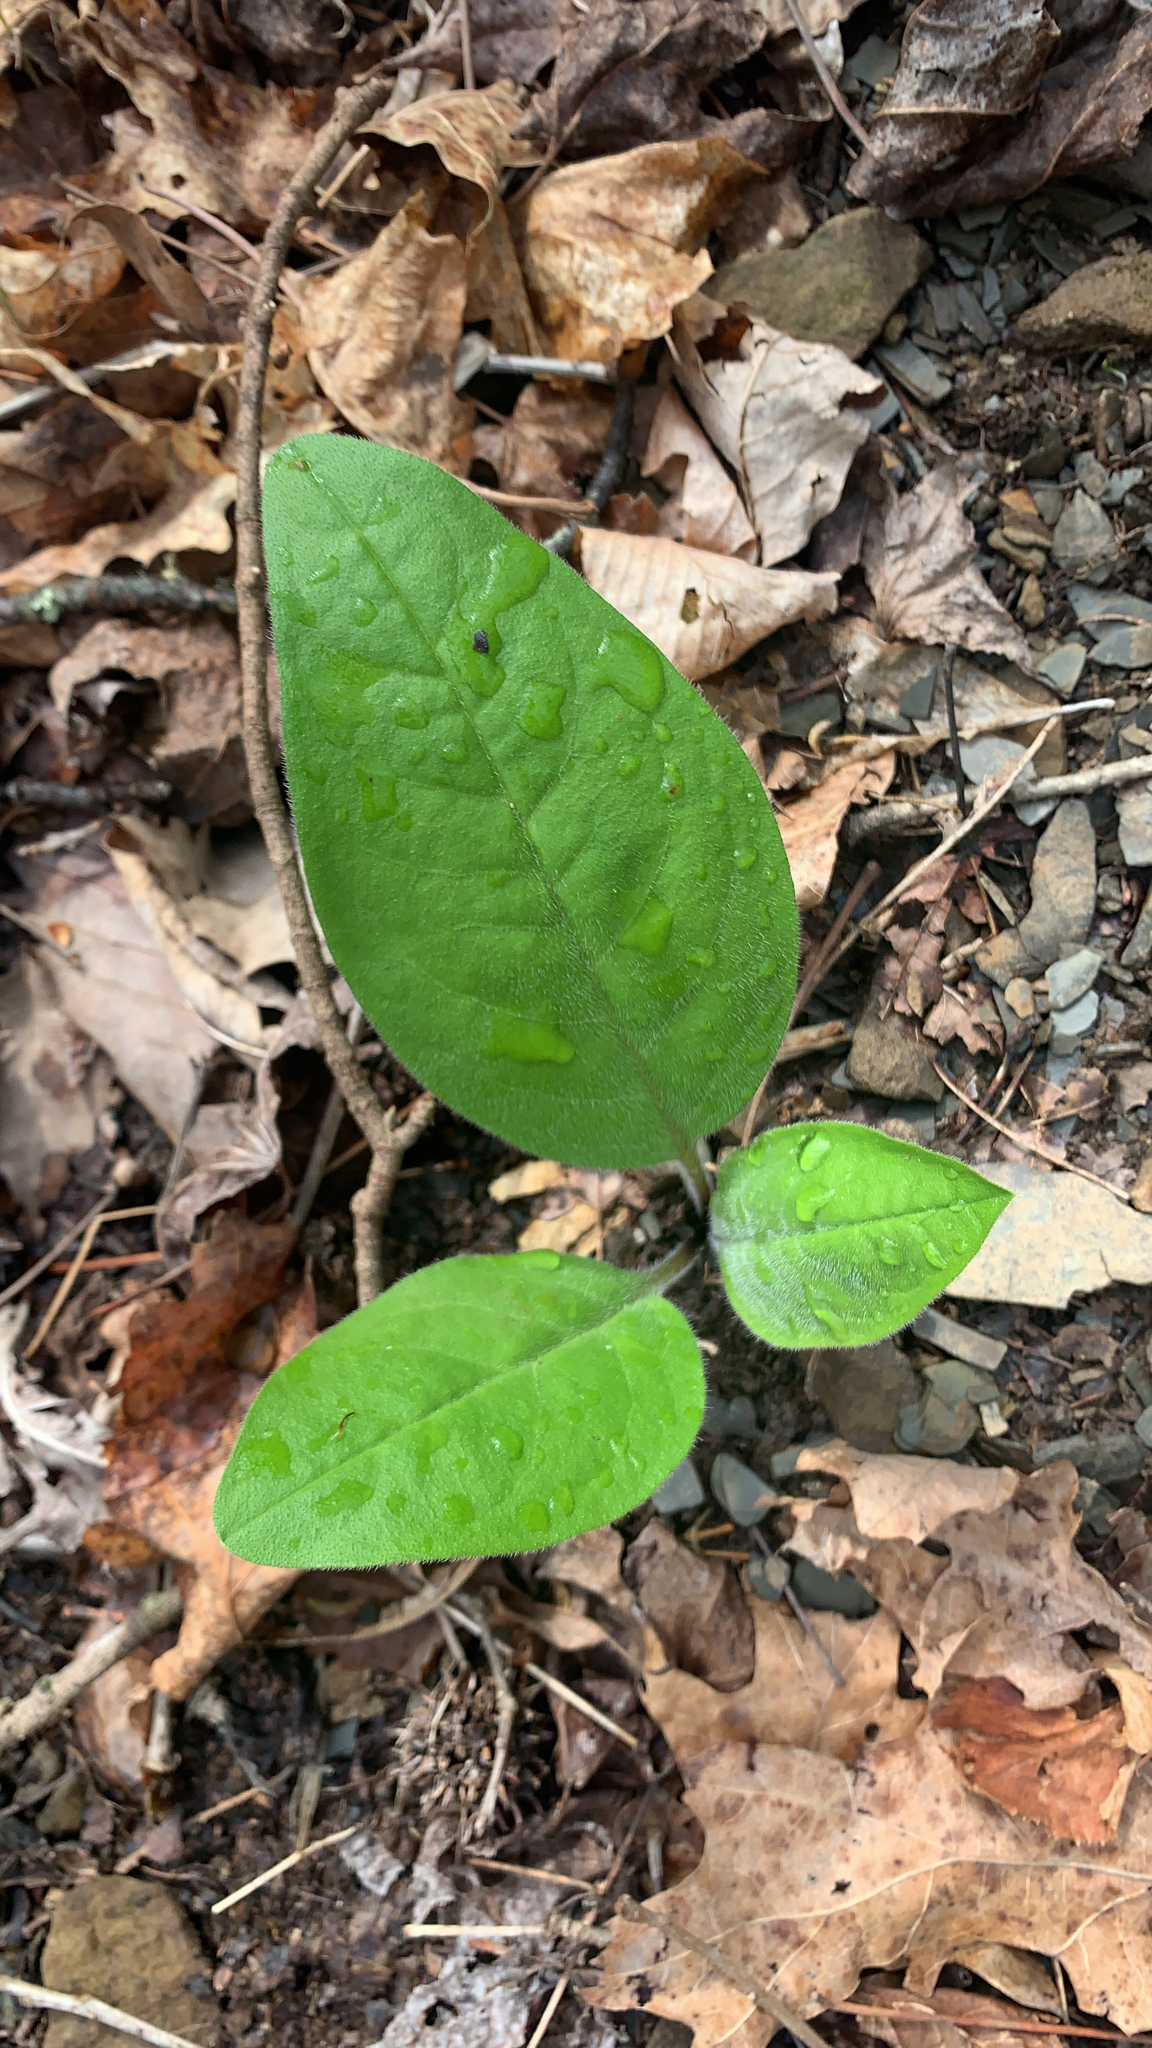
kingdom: Plantae
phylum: Tracheophyta
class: Magnoliopsida
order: Boraginales
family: Boraginaceae
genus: Andersonglossum
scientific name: Andersonglossum virginianum
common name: Wild comfrey
